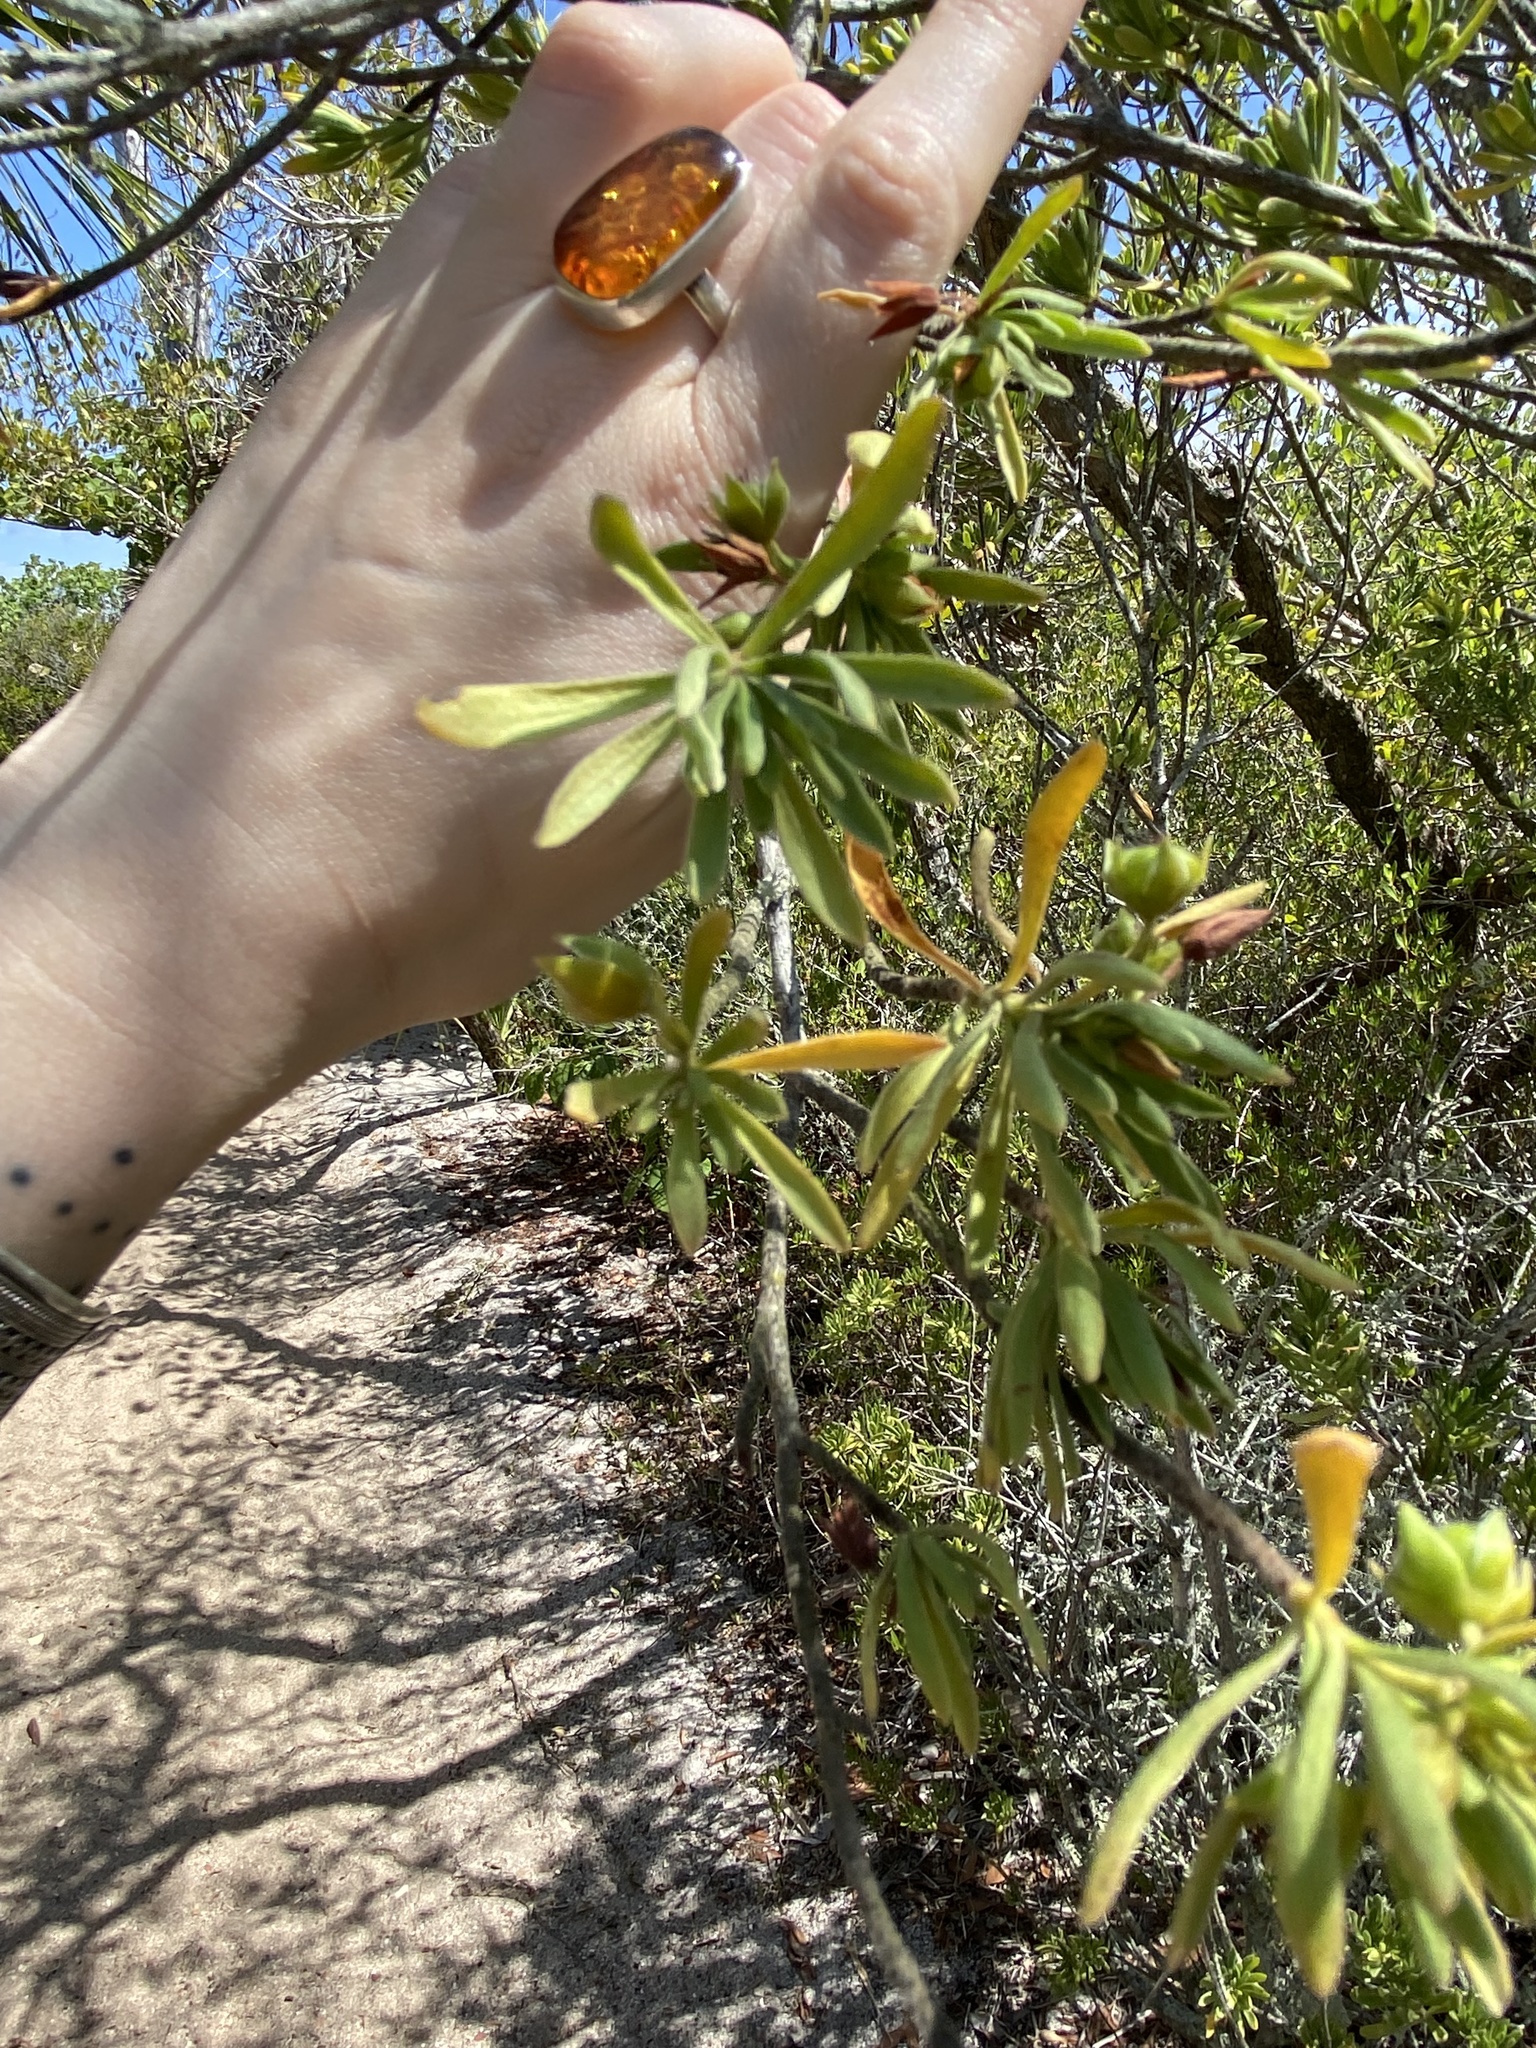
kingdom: Plantae
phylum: Tracheophyta
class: Magnoliopsida
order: Fabales
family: Surianaceae
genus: Suriana
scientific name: Suriana maritima
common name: Bay-cedar
